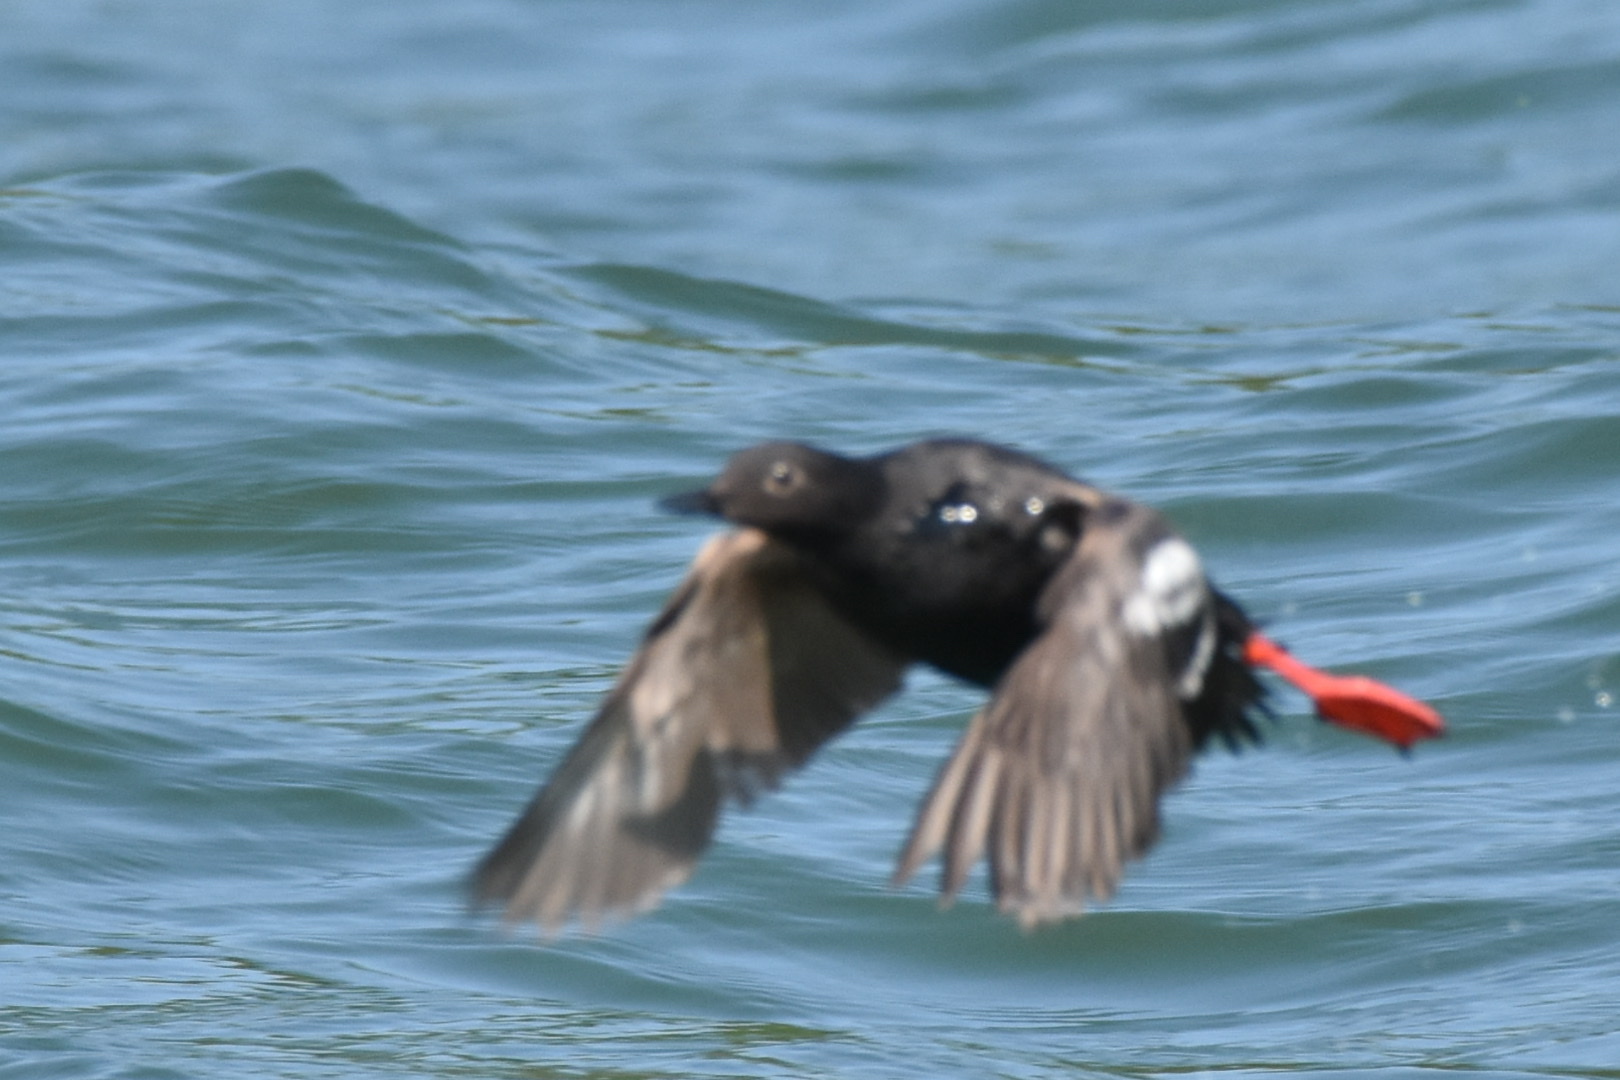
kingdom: Animalia
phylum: Chordata
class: Aves
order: Charadriiformes
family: Alcidae
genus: Cepphus
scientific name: Cepphus columba
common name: Pigeon guillemot
